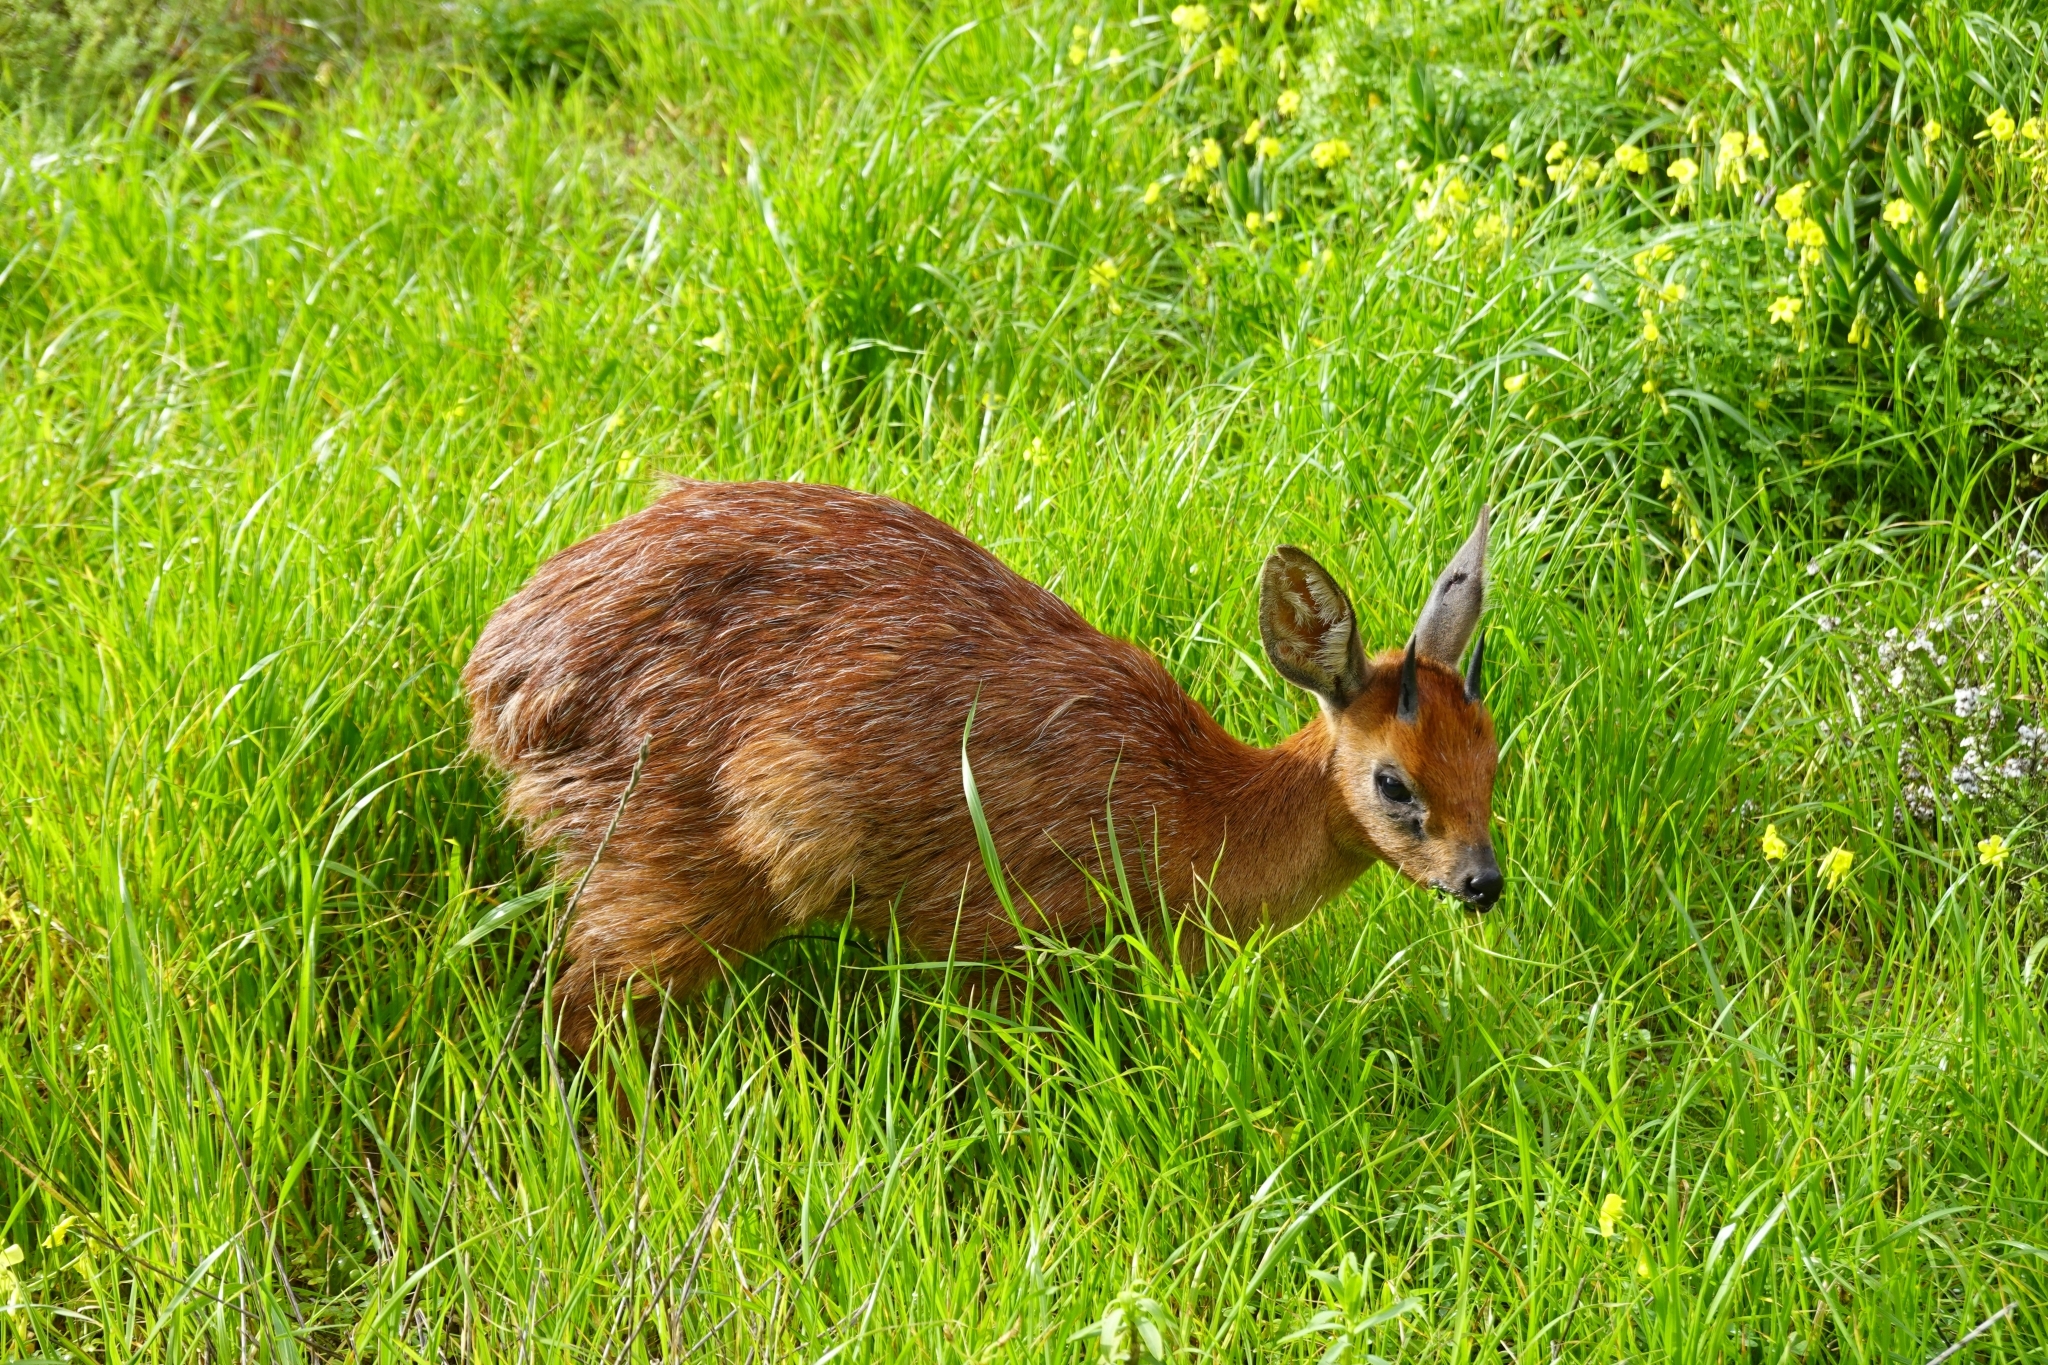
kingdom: Animalia
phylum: Chordata
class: Mammalia
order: Artiodactyla
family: Bovidae
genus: Raphicerus
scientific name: Raphicerus melanotis
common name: Cape grysbok
